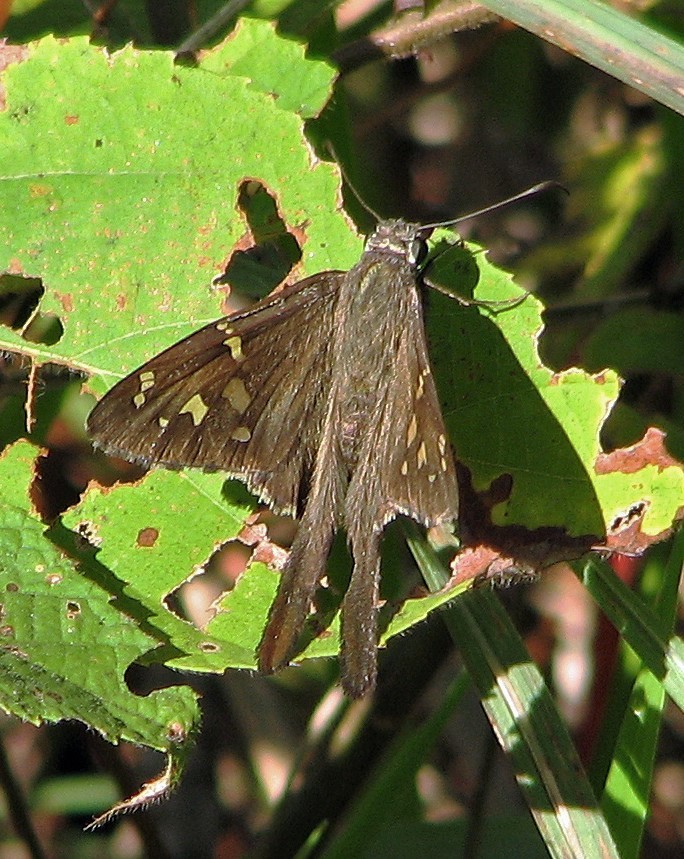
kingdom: Animalia
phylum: Arthropoda
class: Insecta
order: Lepidoptera
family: Hesperiidae
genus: Thorybes
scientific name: Thorybes
